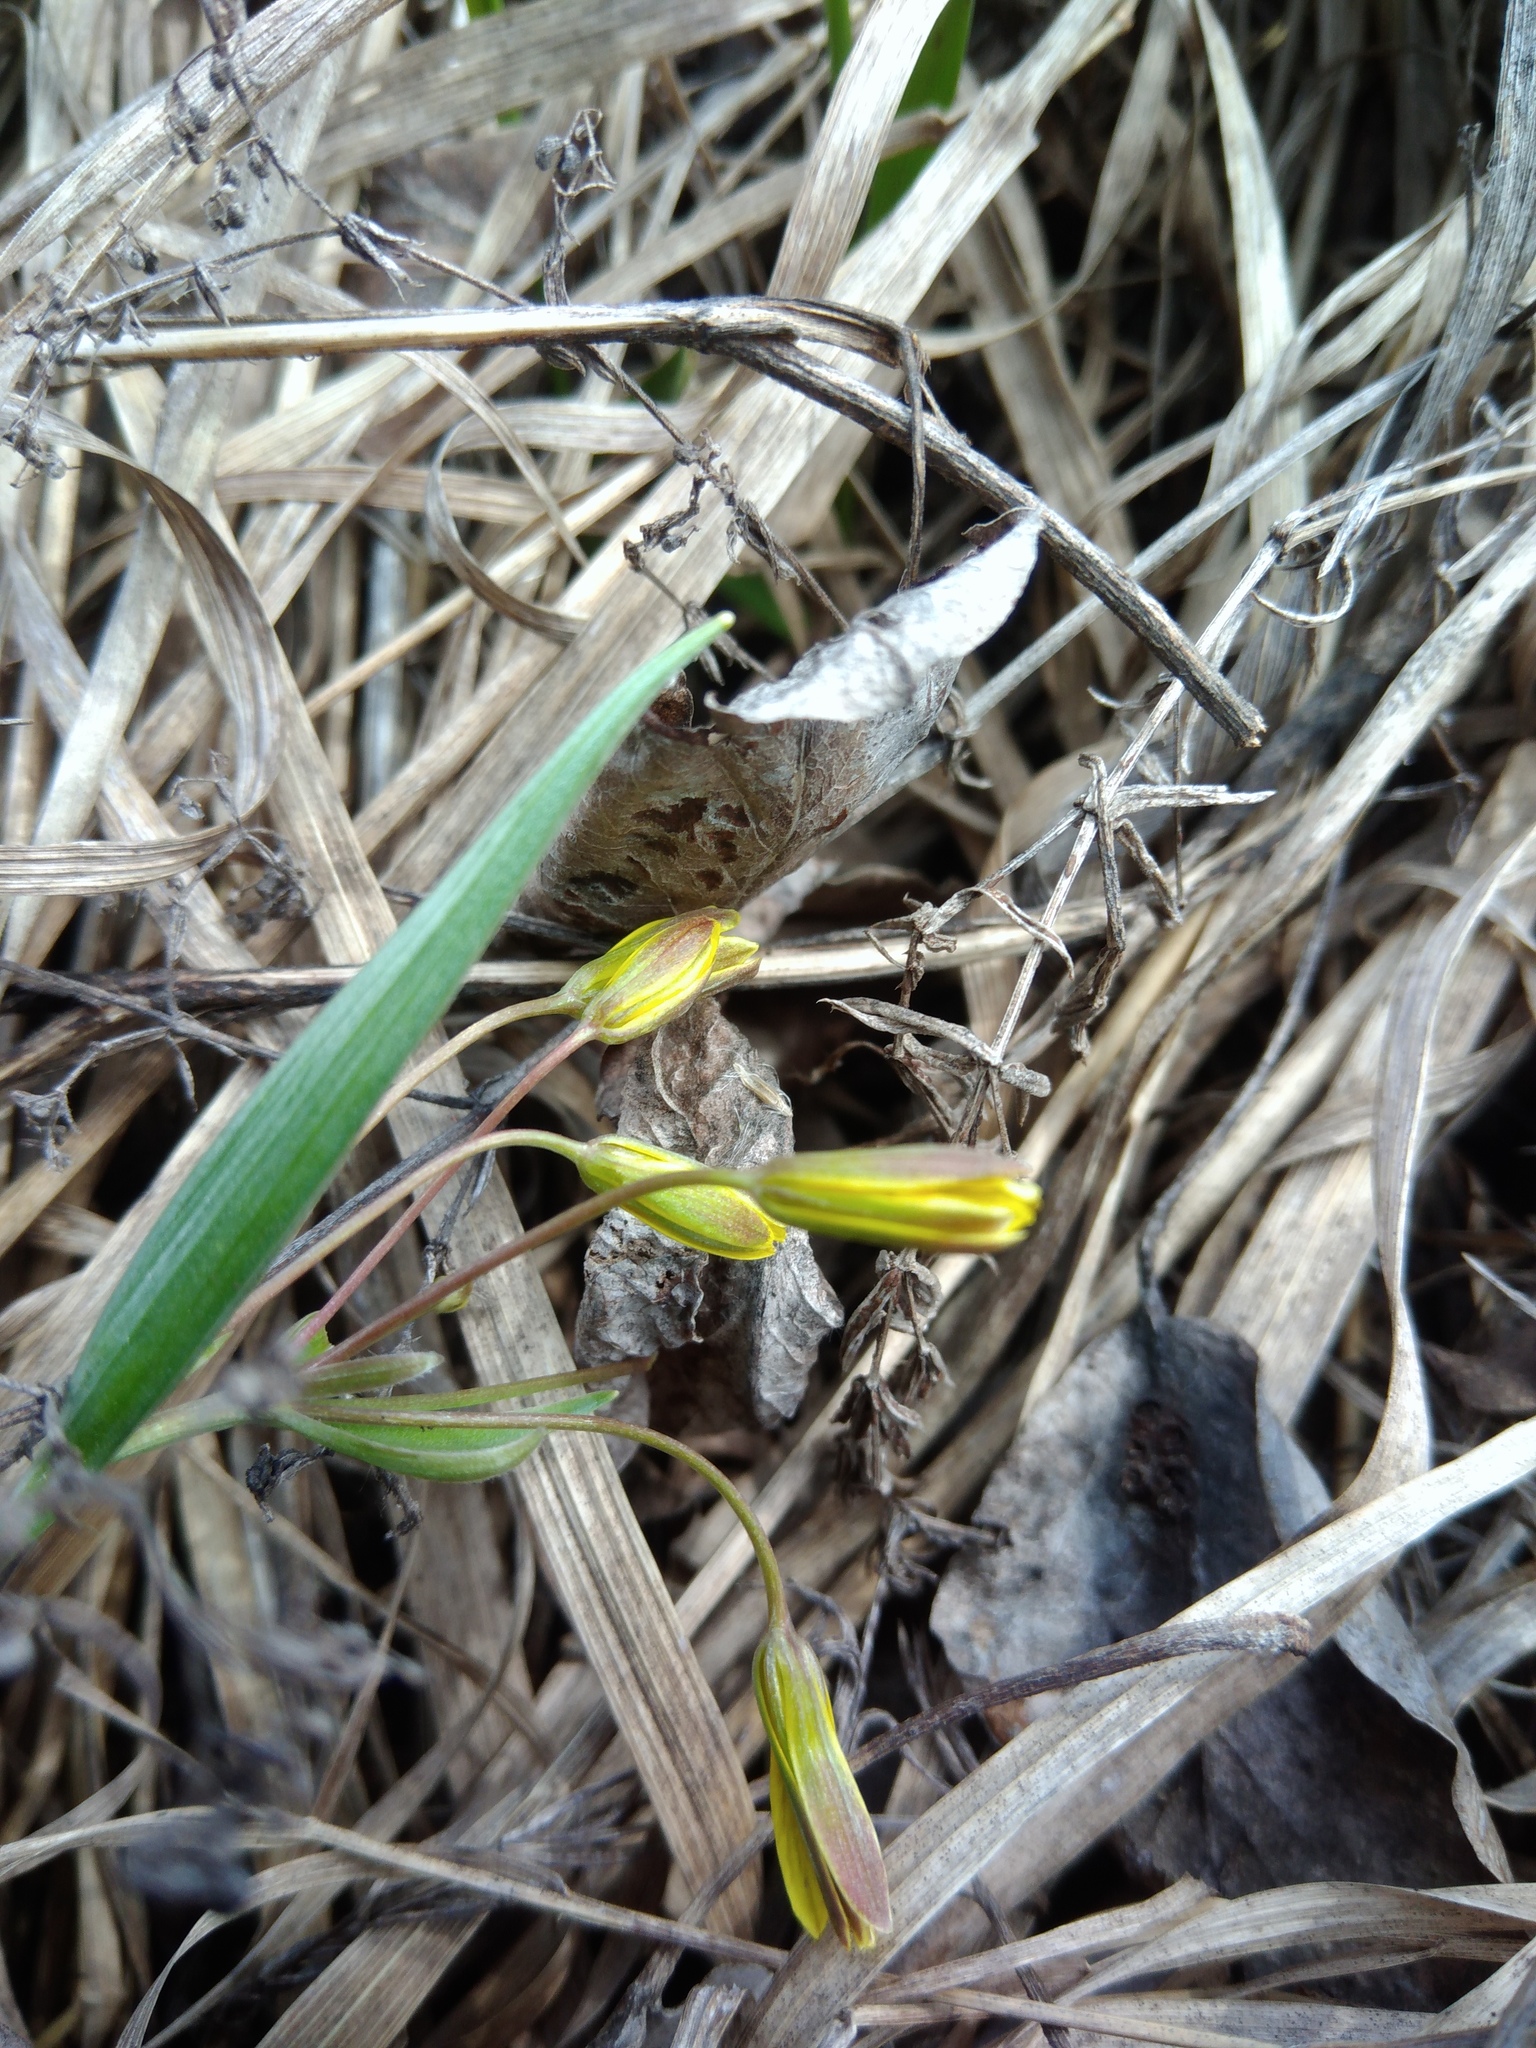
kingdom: Plantae
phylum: Tracheophyta
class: Liliopsida
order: Liliales
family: Liliaceae
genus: Gagea
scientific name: Gagea fragifera
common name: Lily
